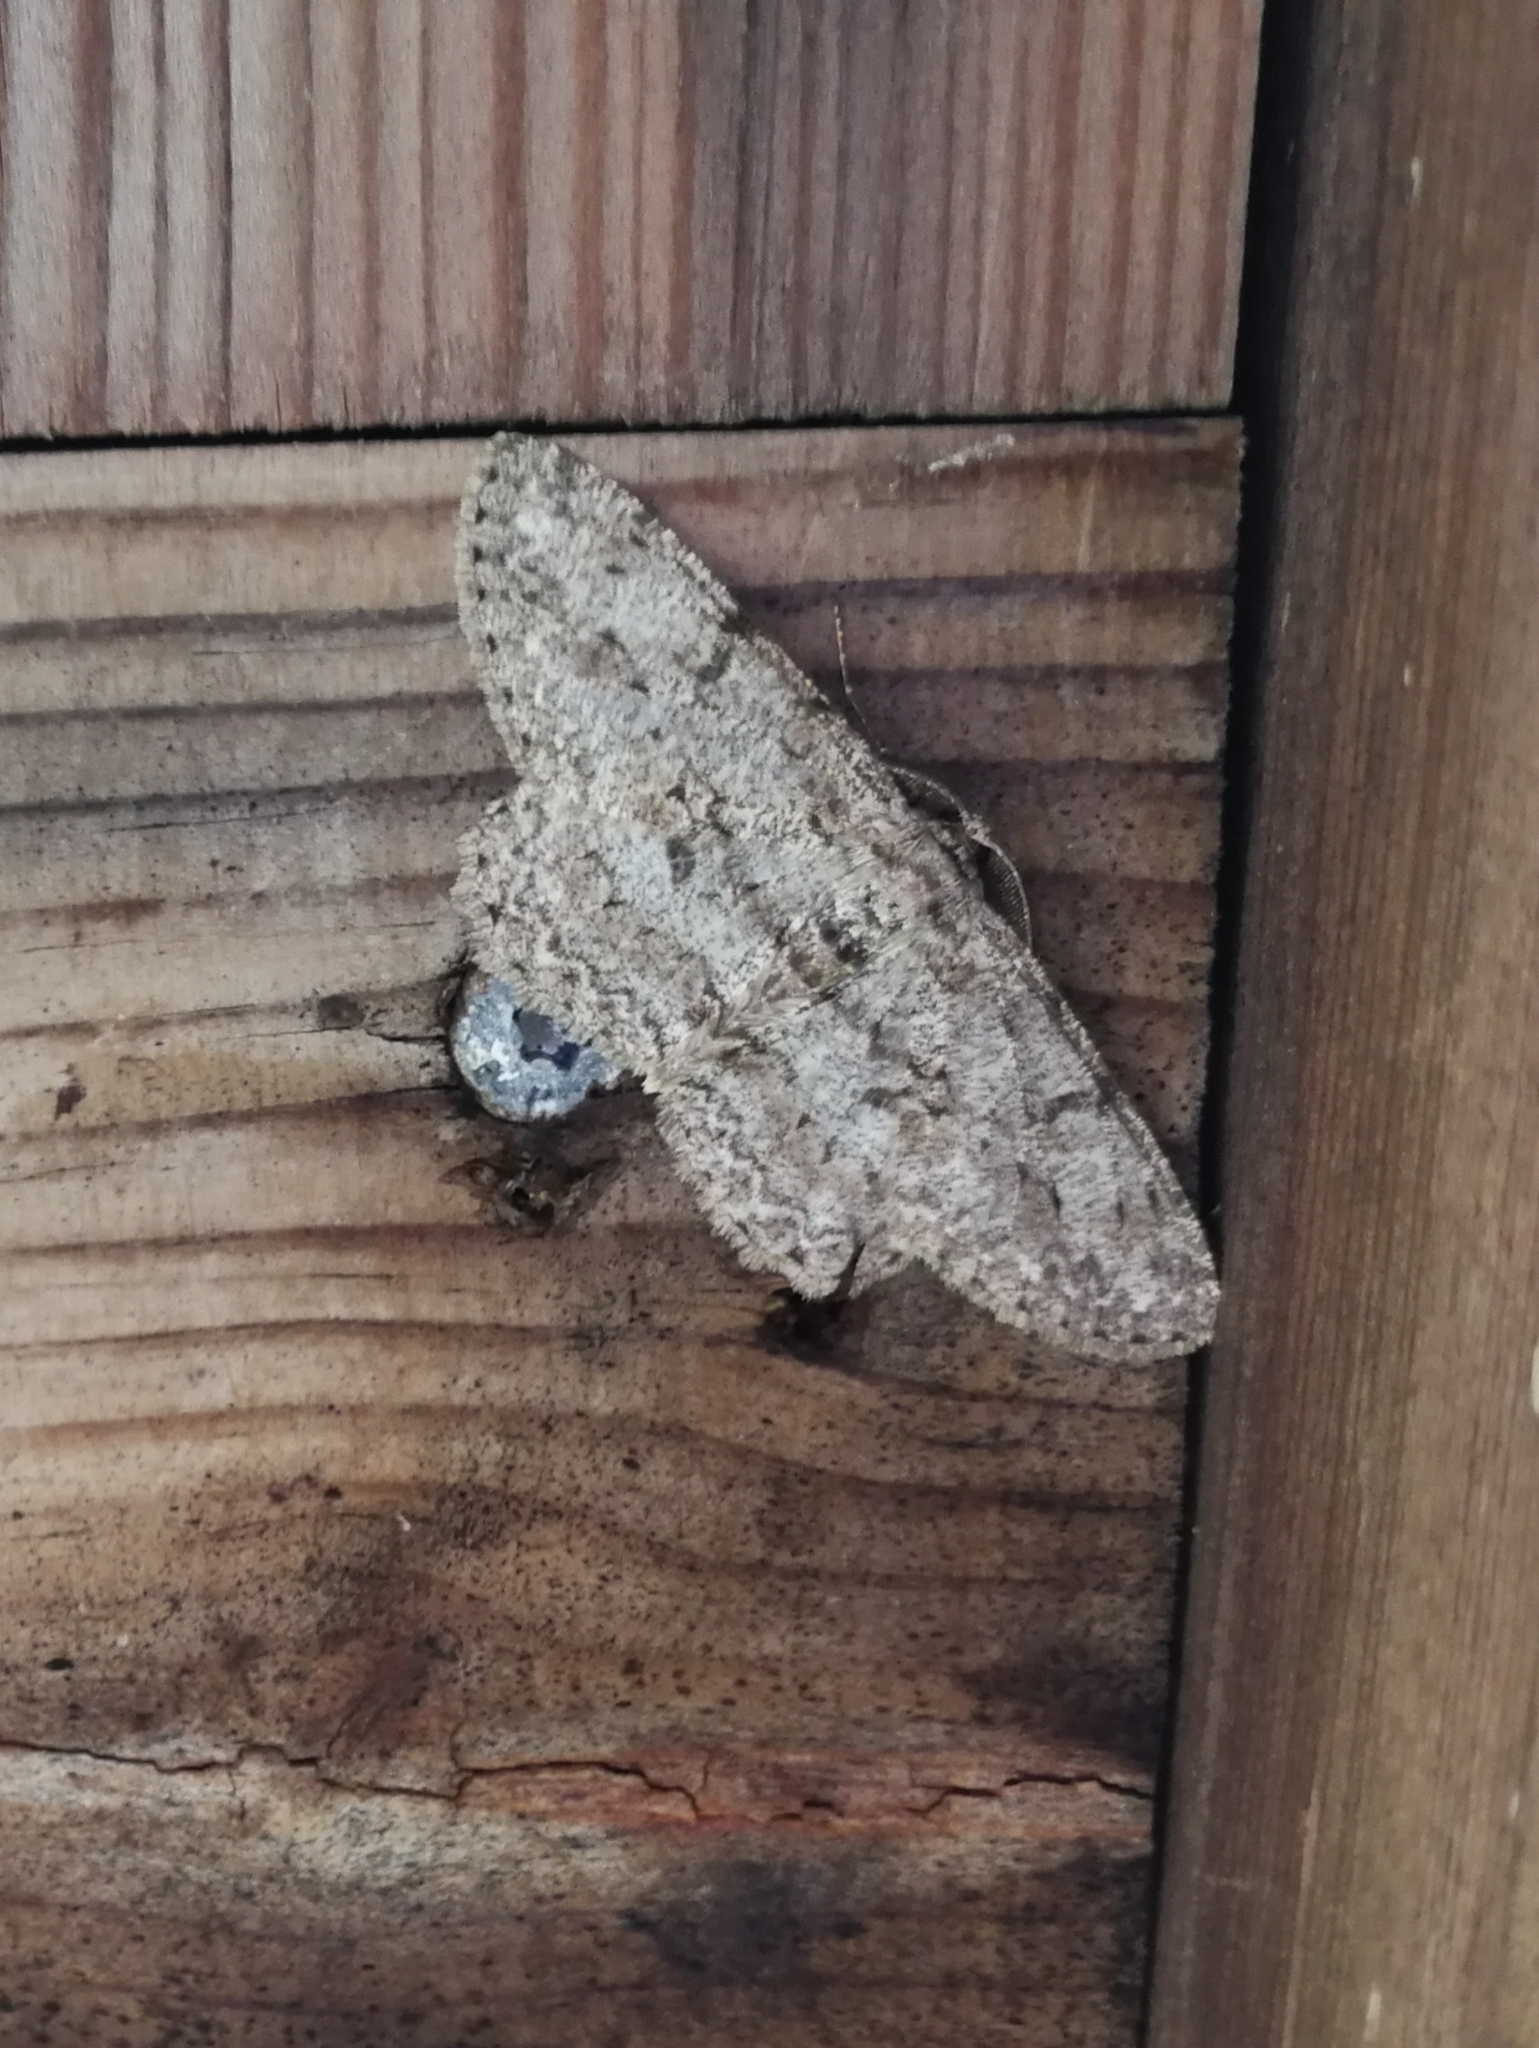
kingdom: Animalia
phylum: Arthropoda
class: Insecta
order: Lepidoptera
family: Geometridae
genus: Hypomecis
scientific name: Hypomecis punctinalis
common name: Pale oak beauty
